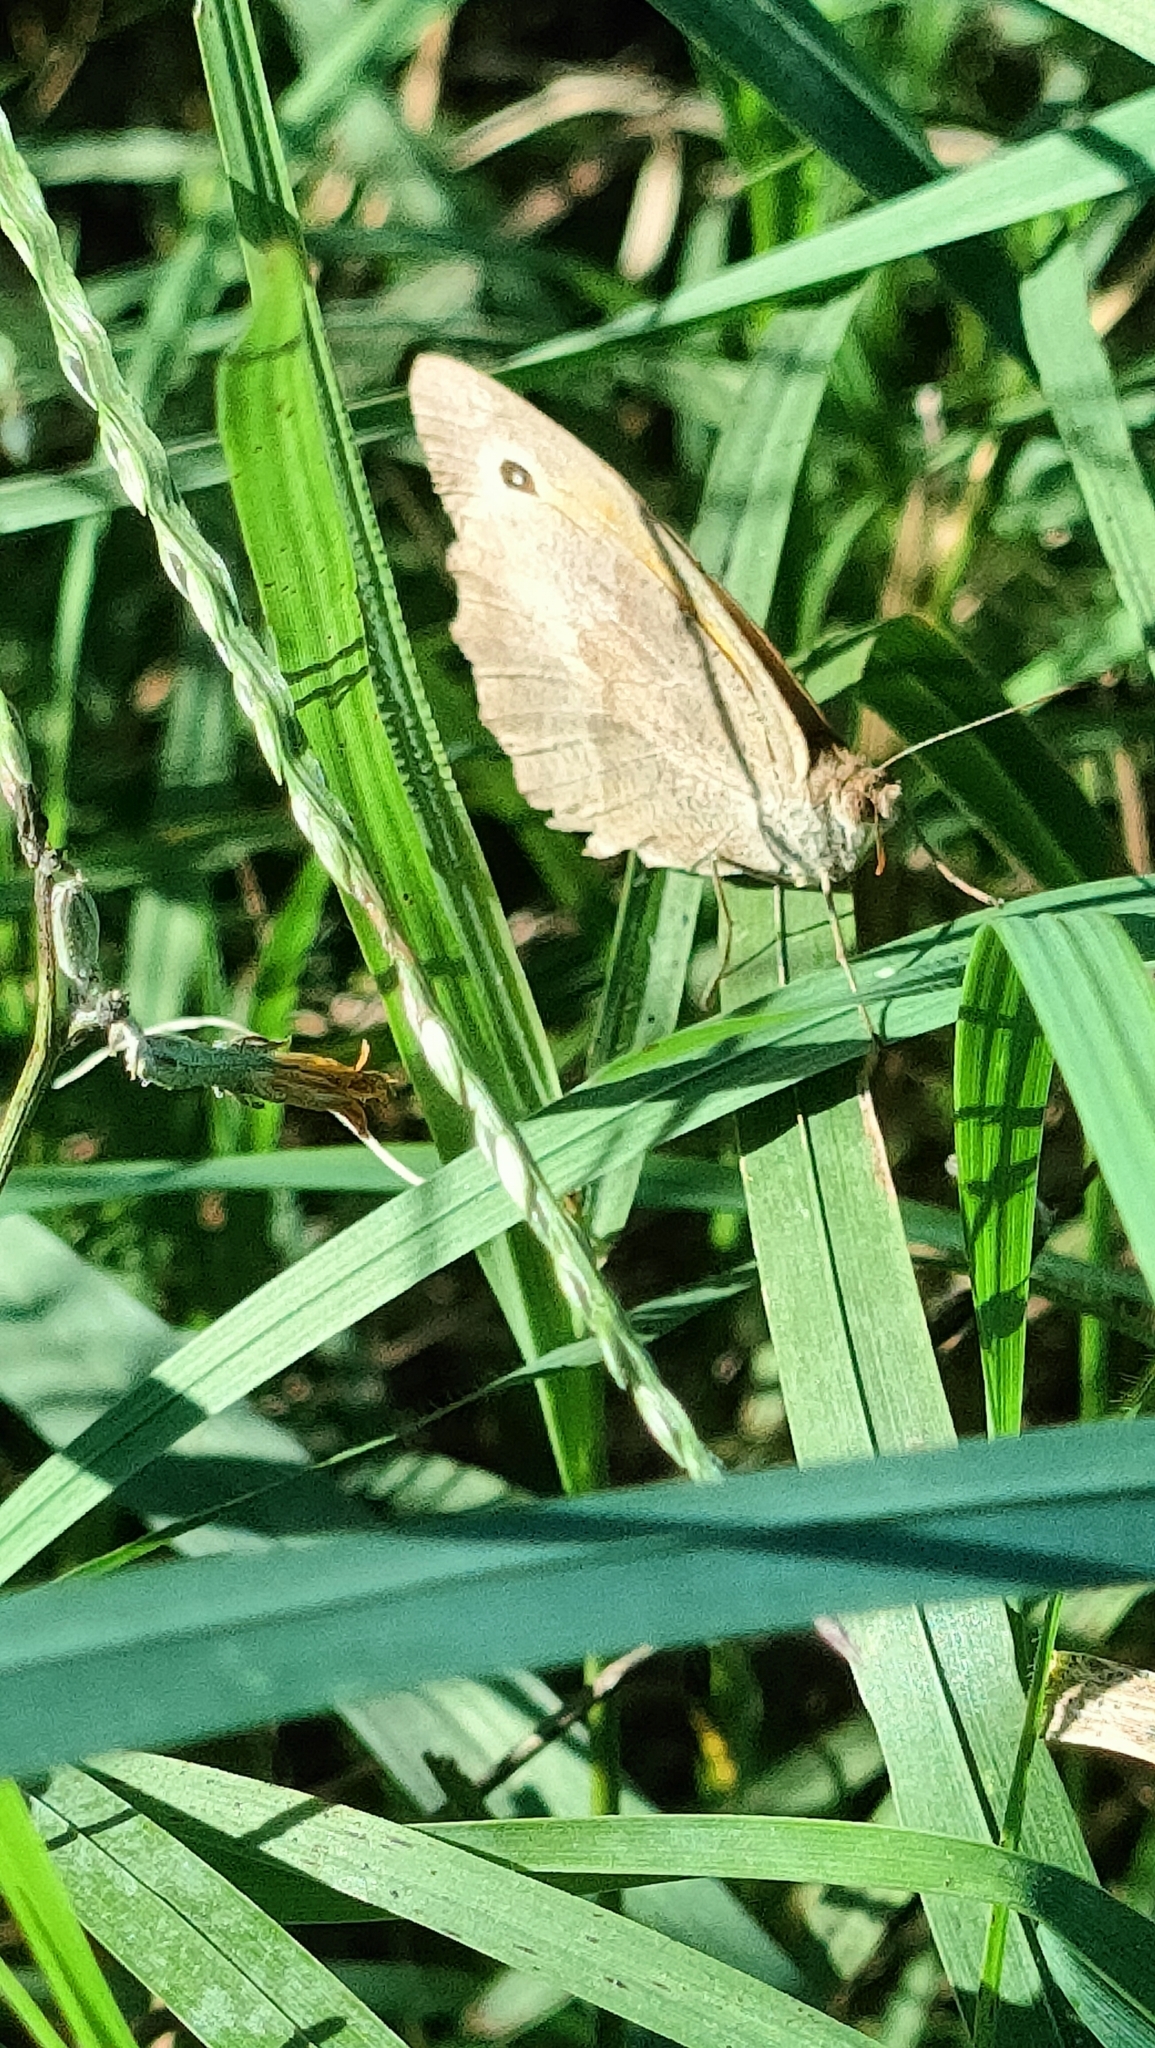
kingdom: Animalia
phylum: Arthropoda
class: Insecta
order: Lepidoptera
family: Nymphalidae
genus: Maniola
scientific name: Maniola jurtina
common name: Meadow brown
